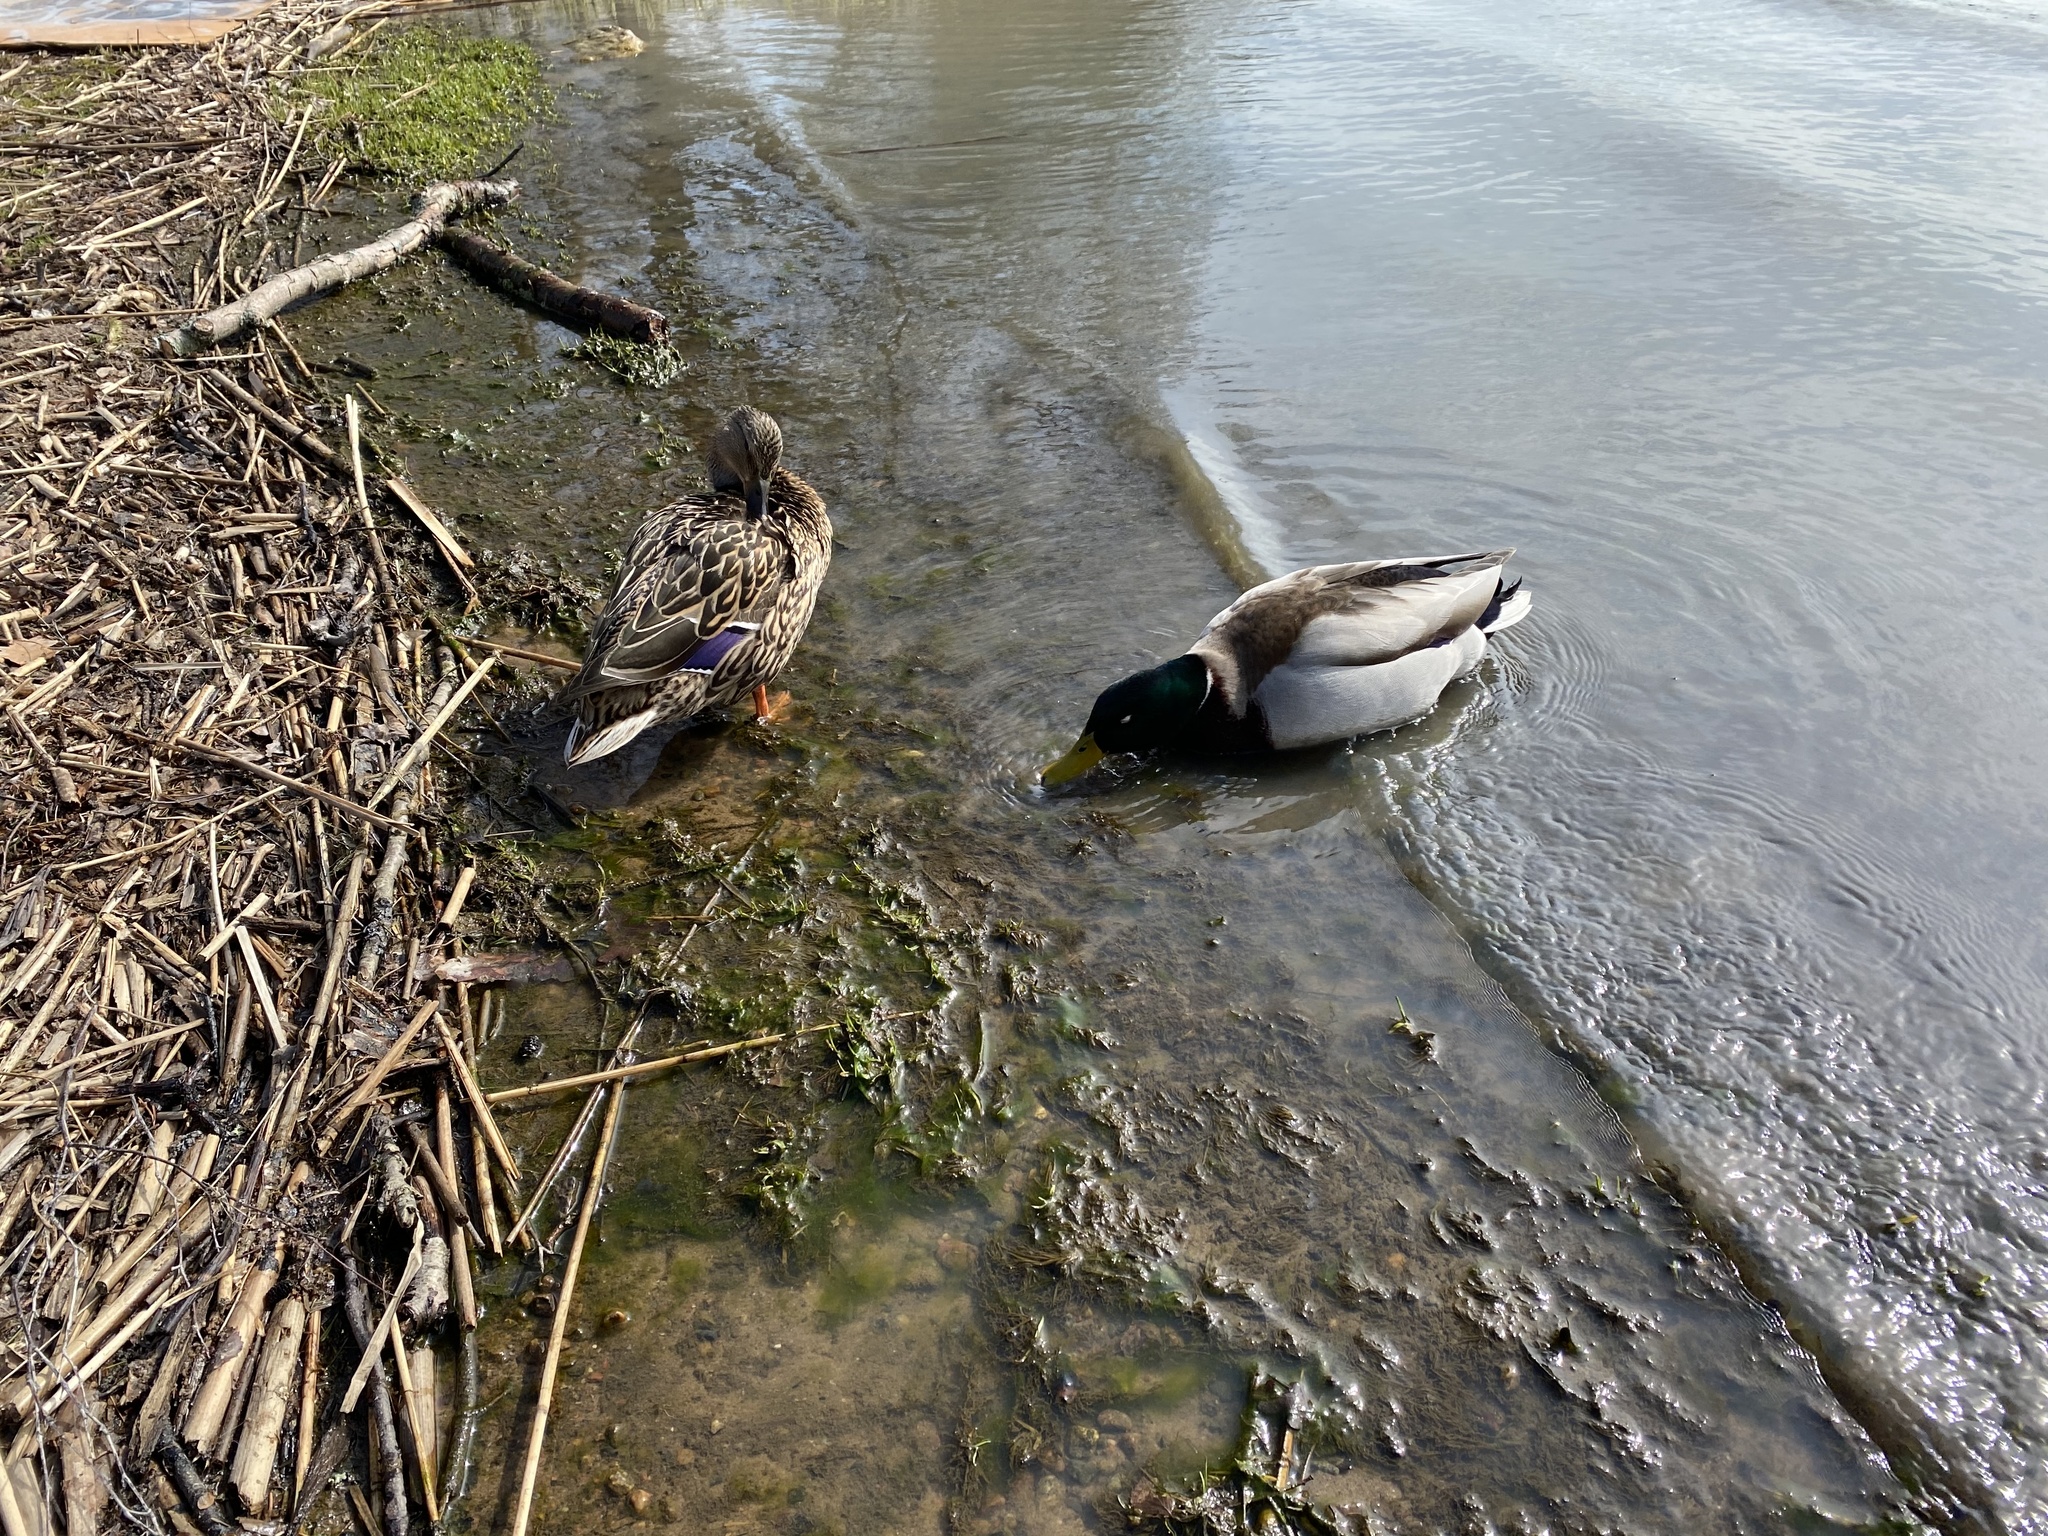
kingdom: Animalia
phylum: Chordata
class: Aves
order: Anseriformes
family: Anatidae
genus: Anas
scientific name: Anas platyrhynchos
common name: Mallard
